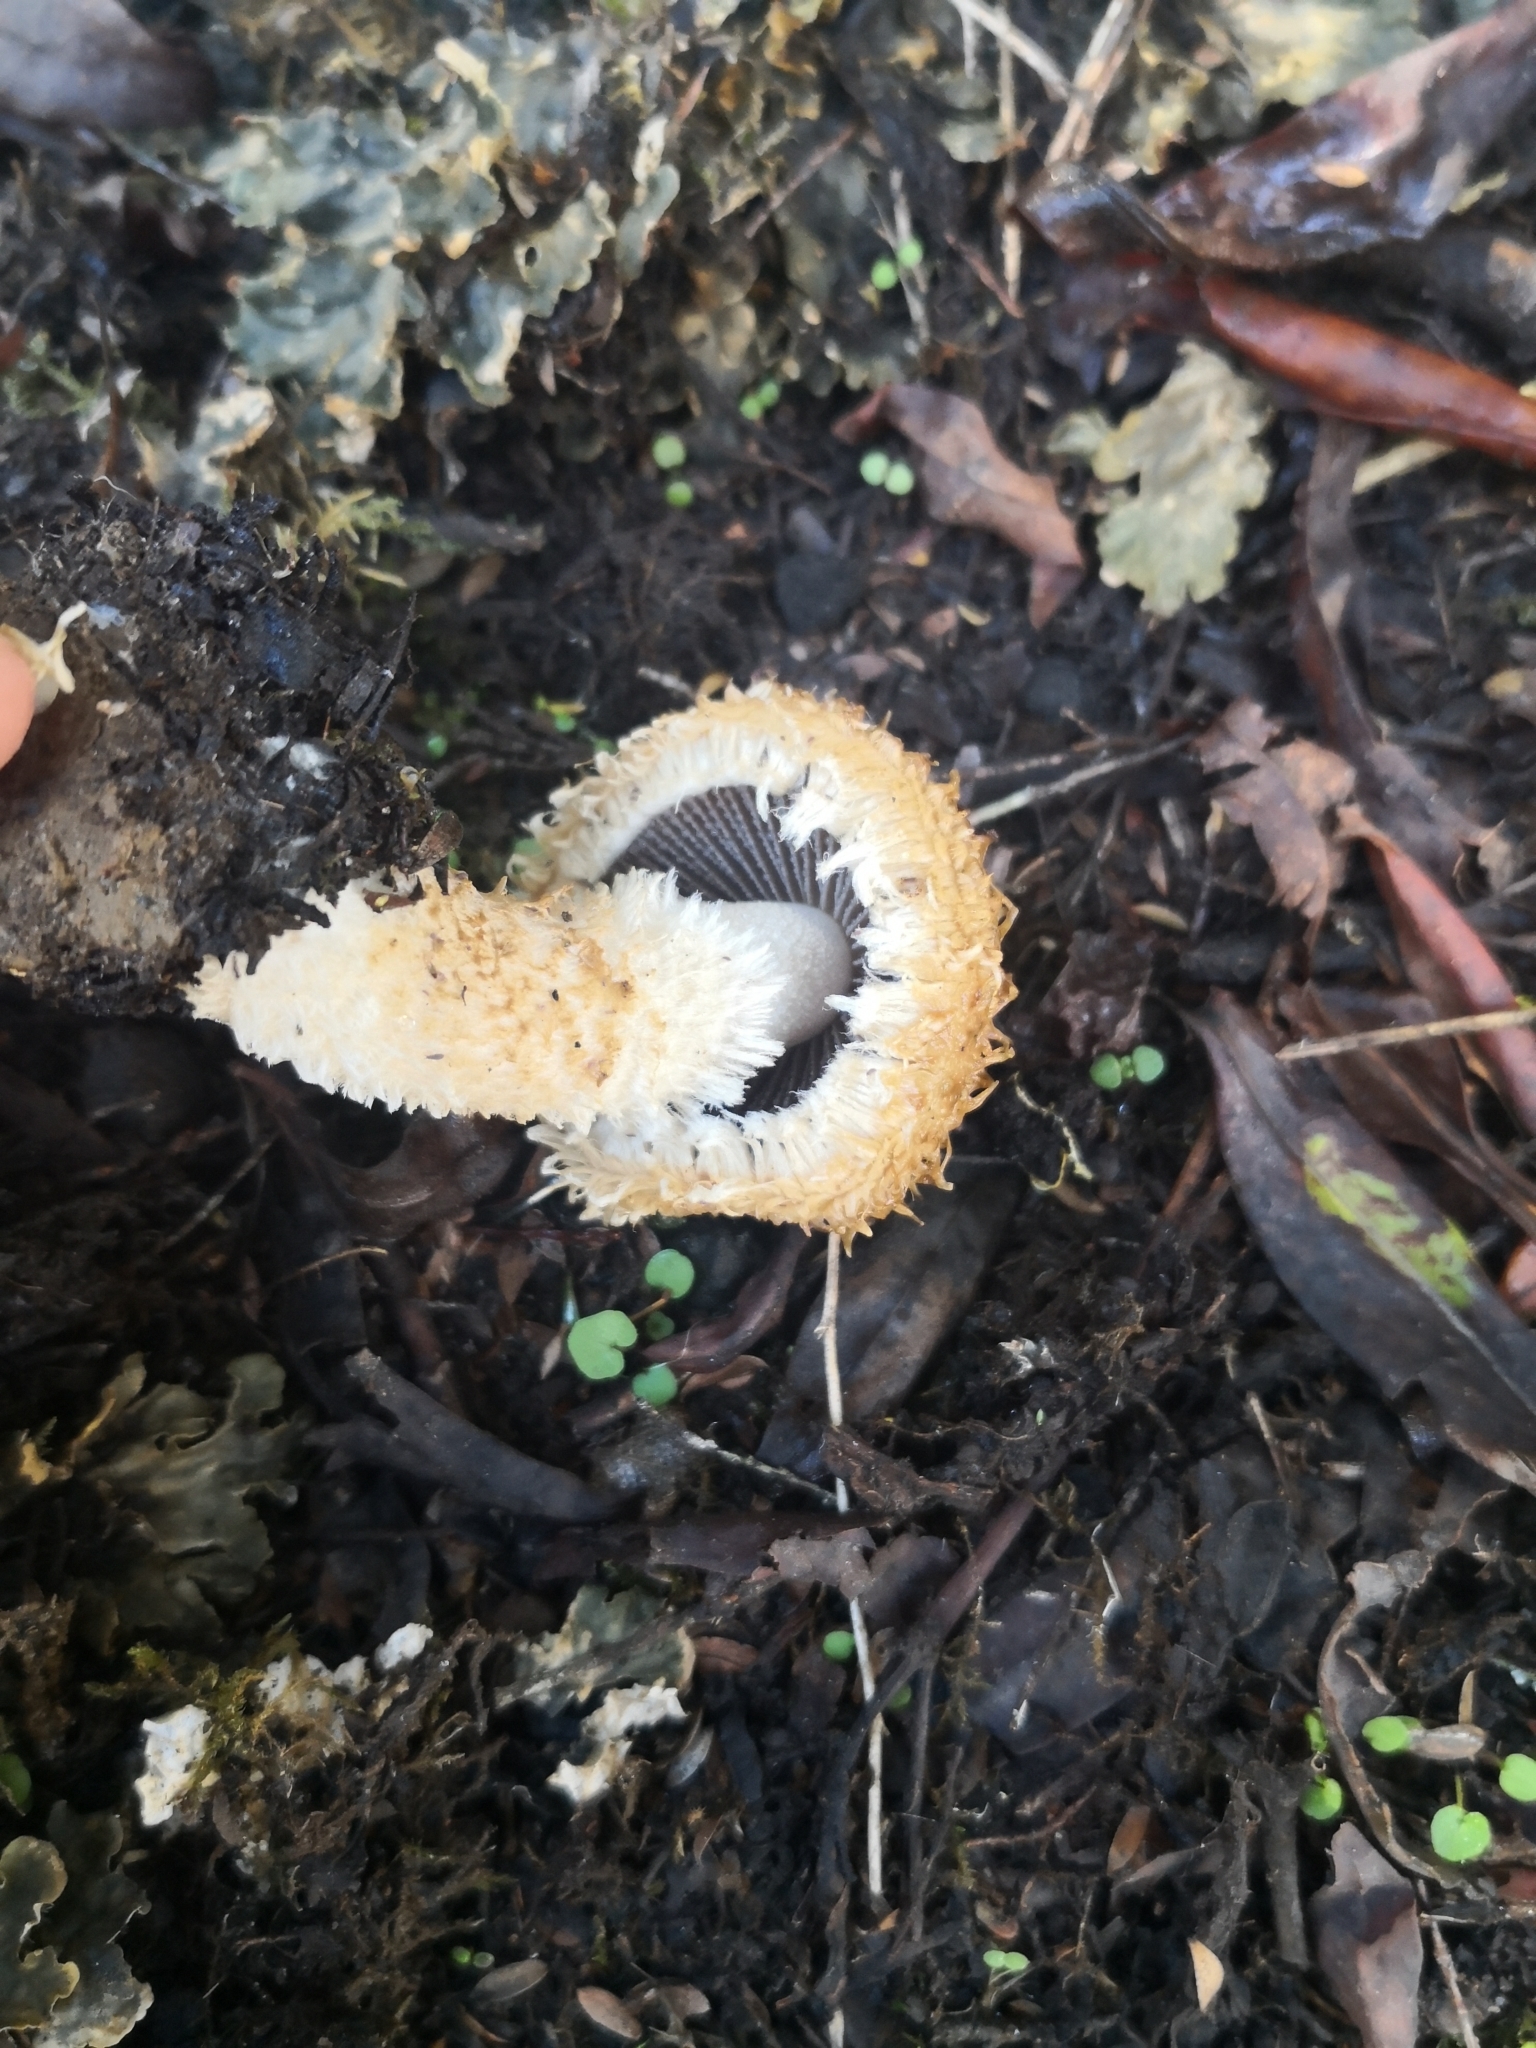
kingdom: Fungi
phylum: Basidiomycota
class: Agaricomycetes
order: Agaricales
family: Psathyrellaceae
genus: Psathyrella
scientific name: Psathyrella asperospora
